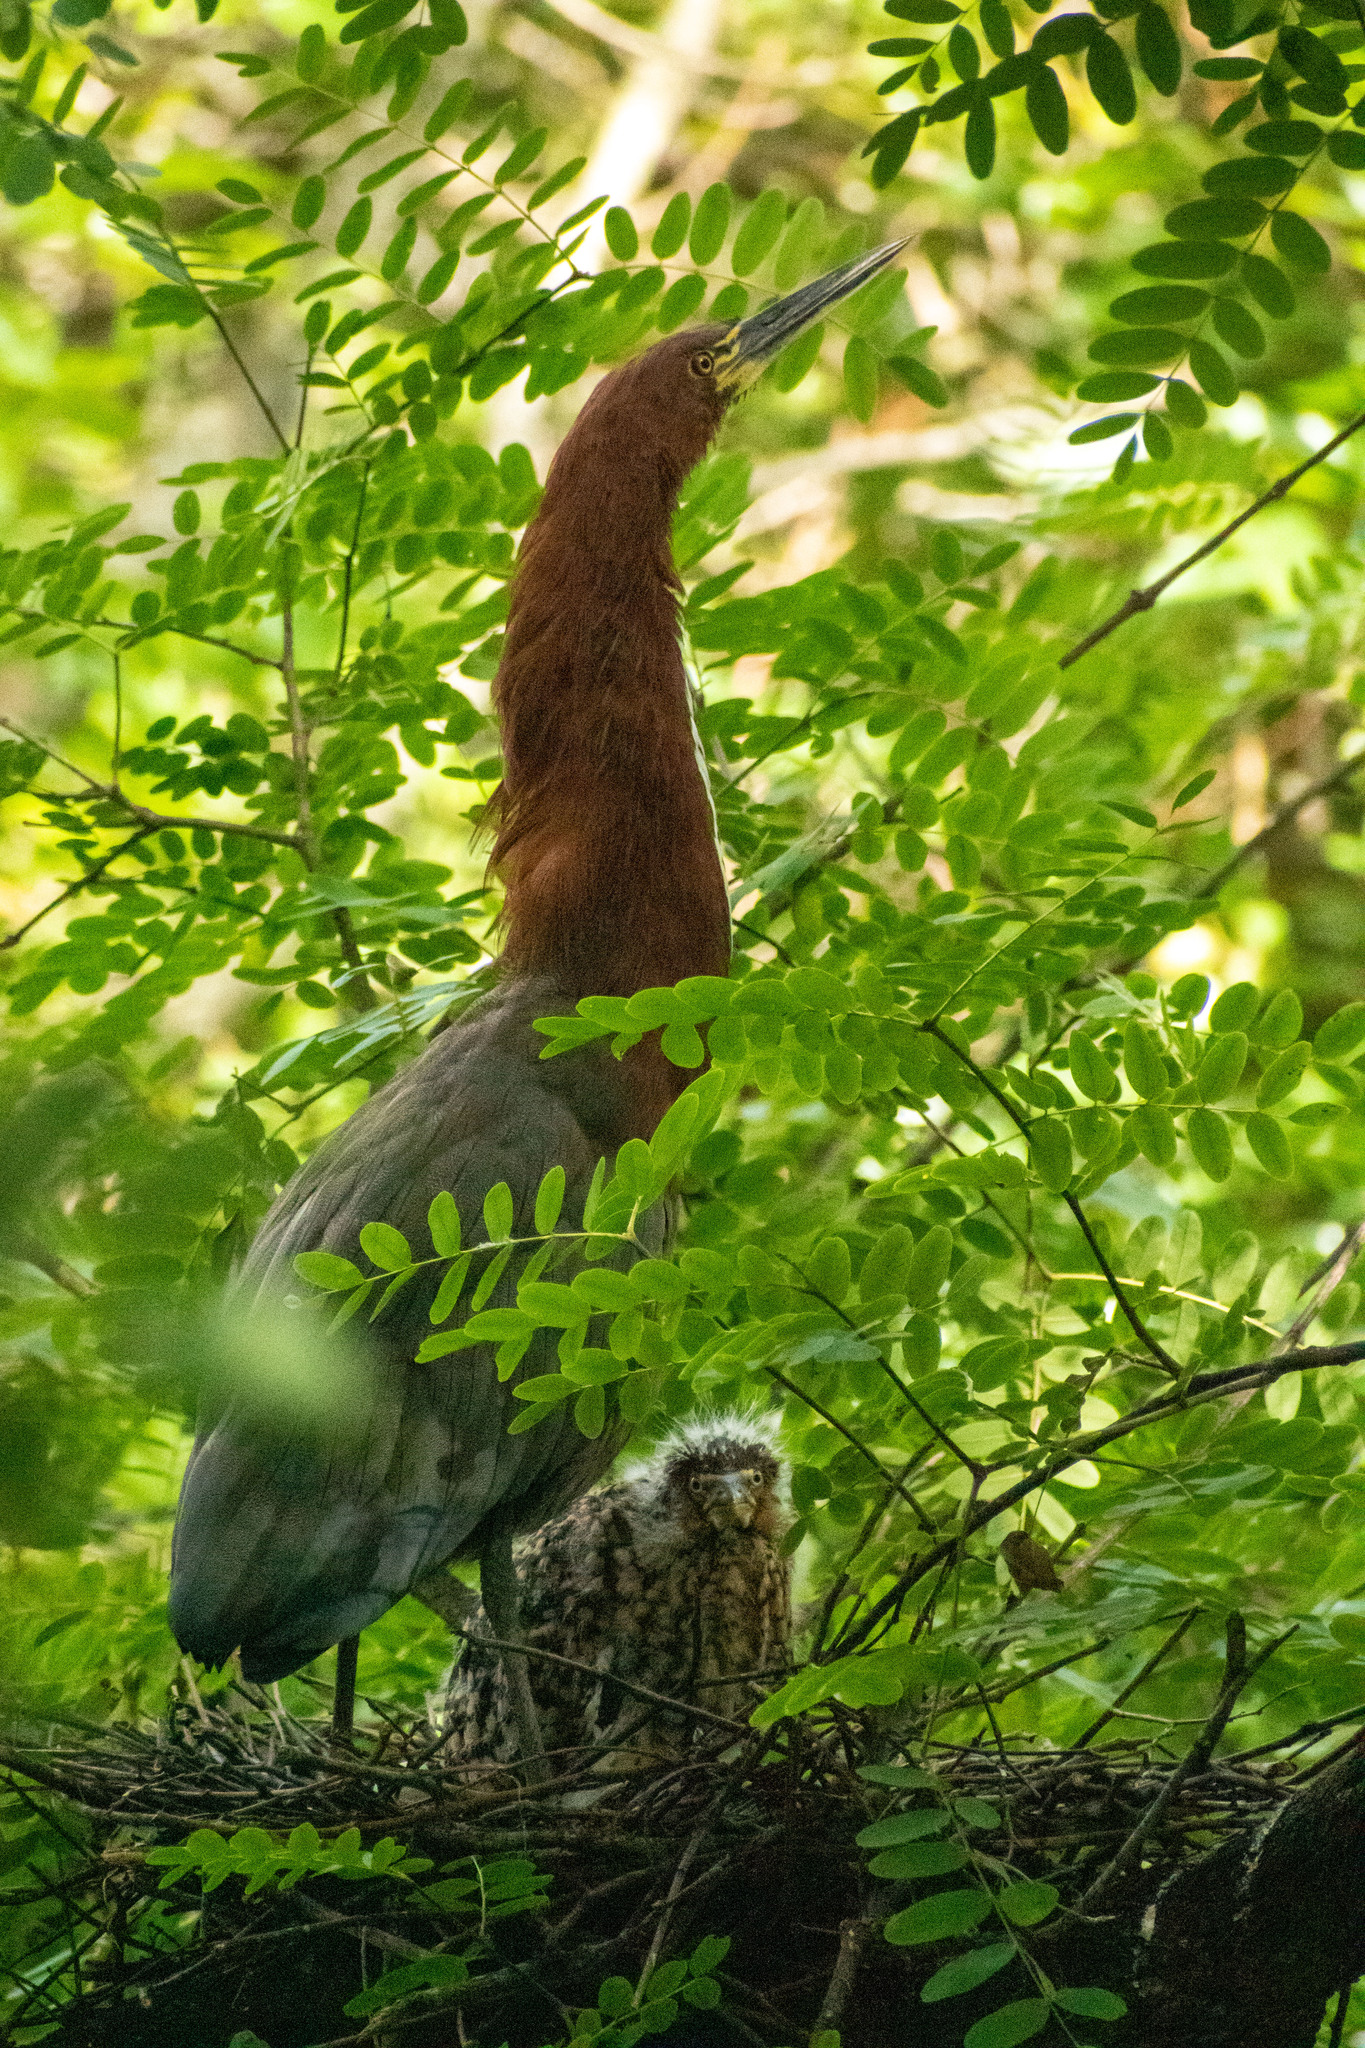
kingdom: Animalia
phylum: Chordata
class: Aves
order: Pelecaniformes
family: Ardeidae
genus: Tigrisoma
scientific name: Tigrisoma lineatum
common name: Rufescent tiger-heron
